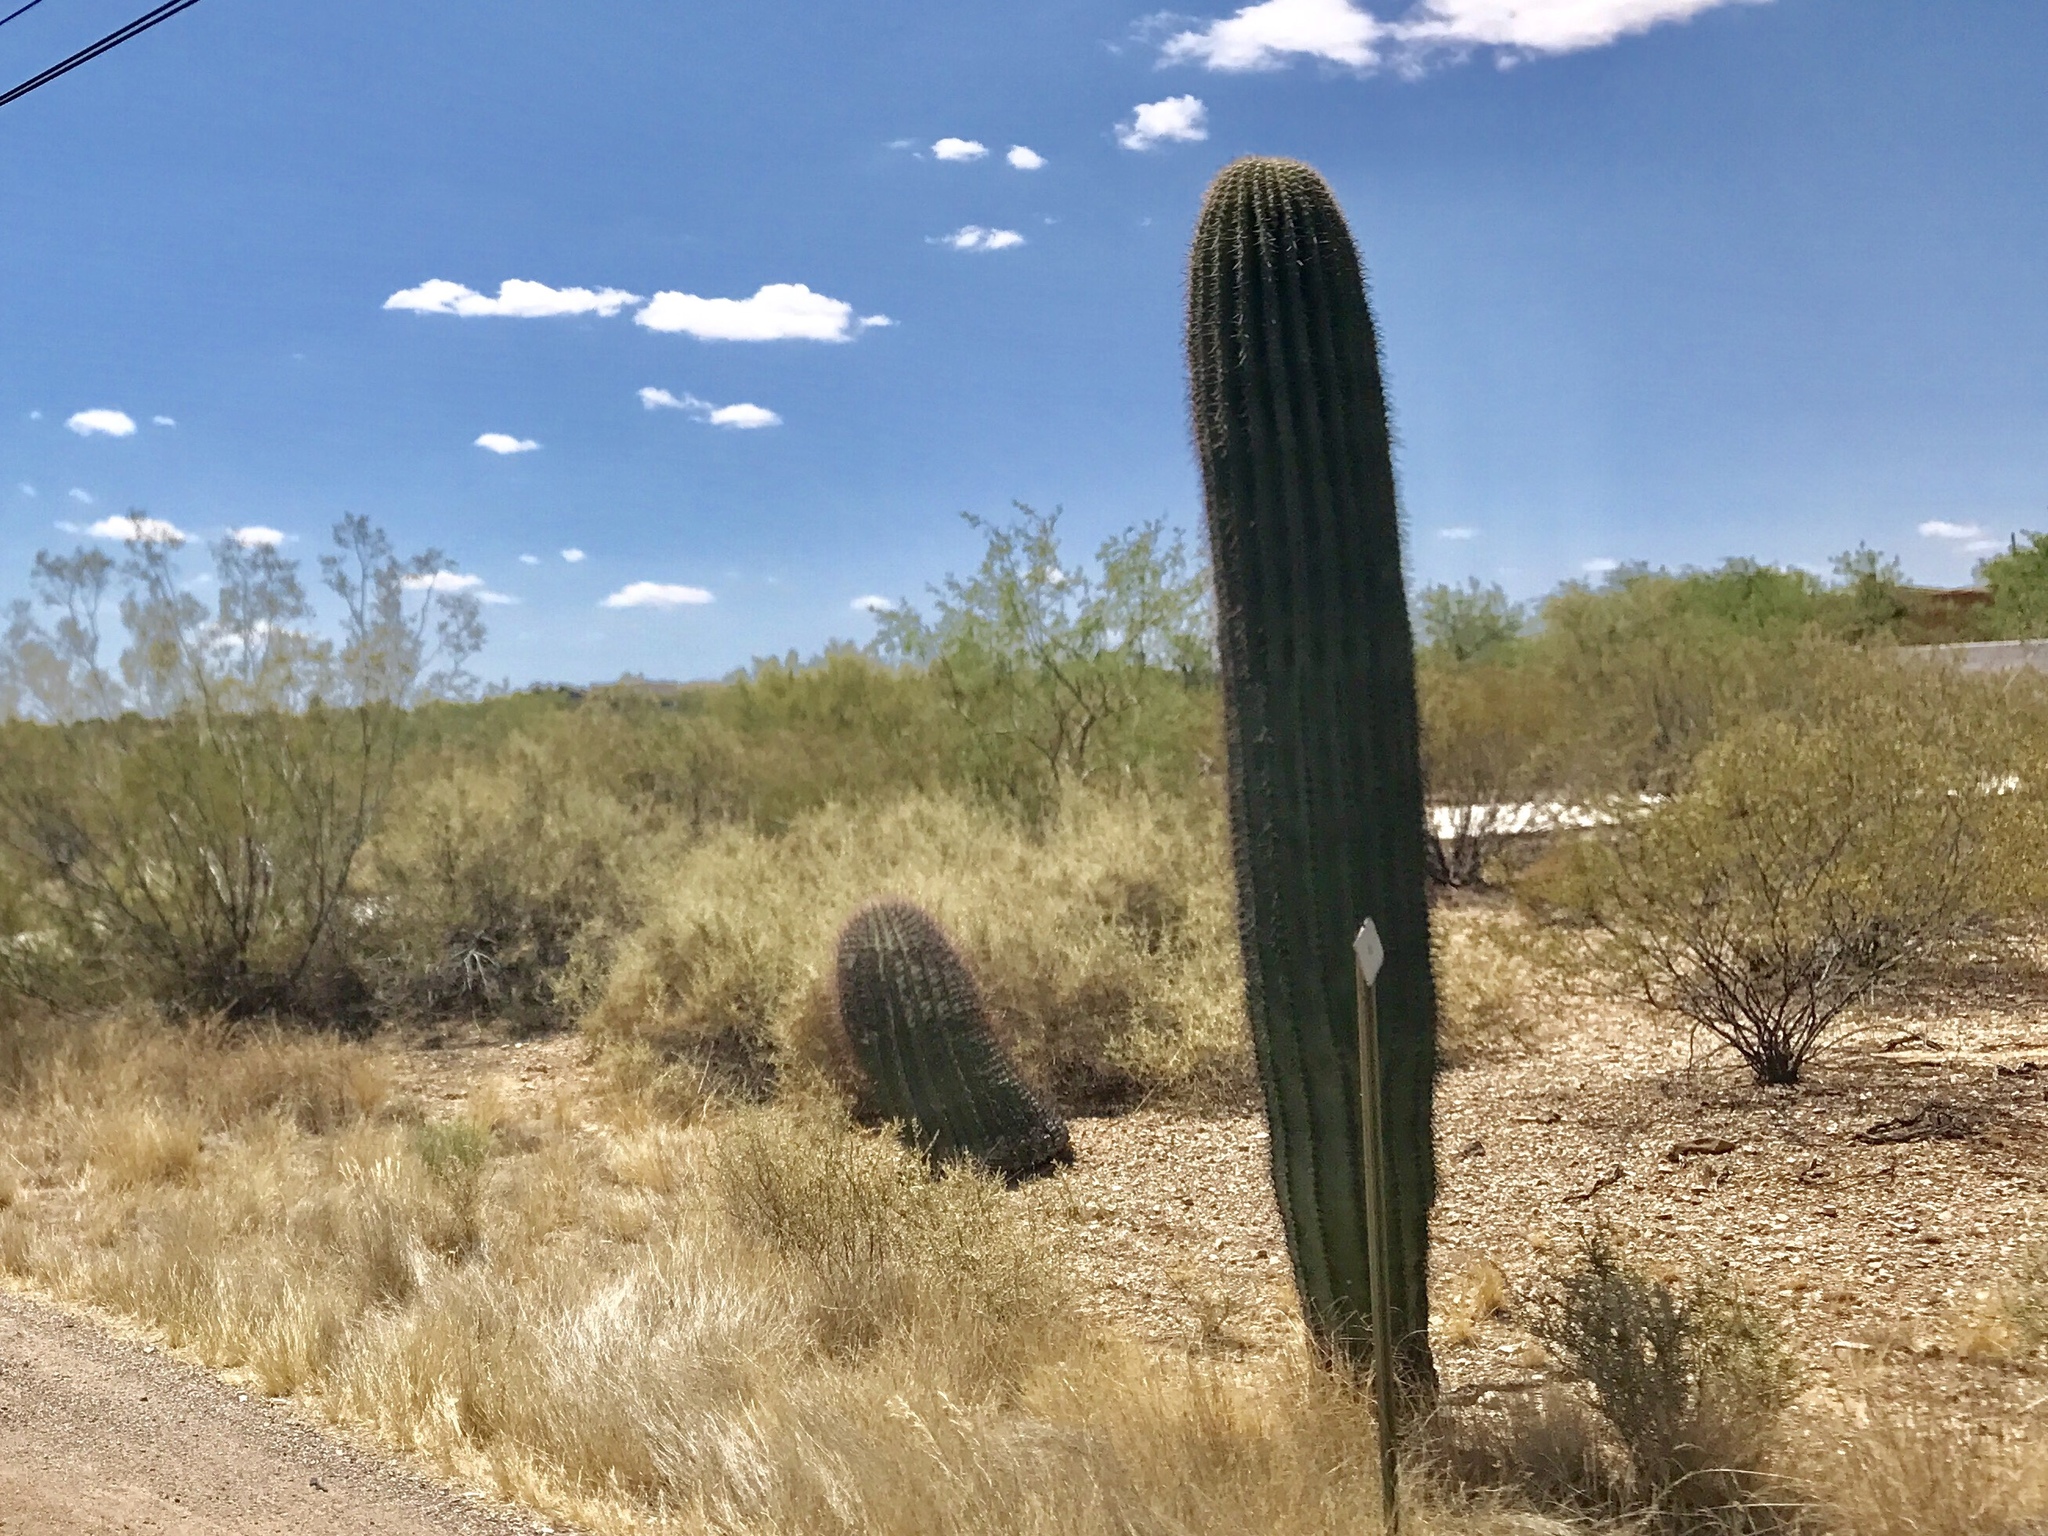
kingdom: Plantae
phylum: Tracheophyta
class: Magnoliopsida
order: Caryophyllales
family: Cactaceae
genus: Carnegiea
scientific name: Carnegiea gigantea
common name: Saguaro
